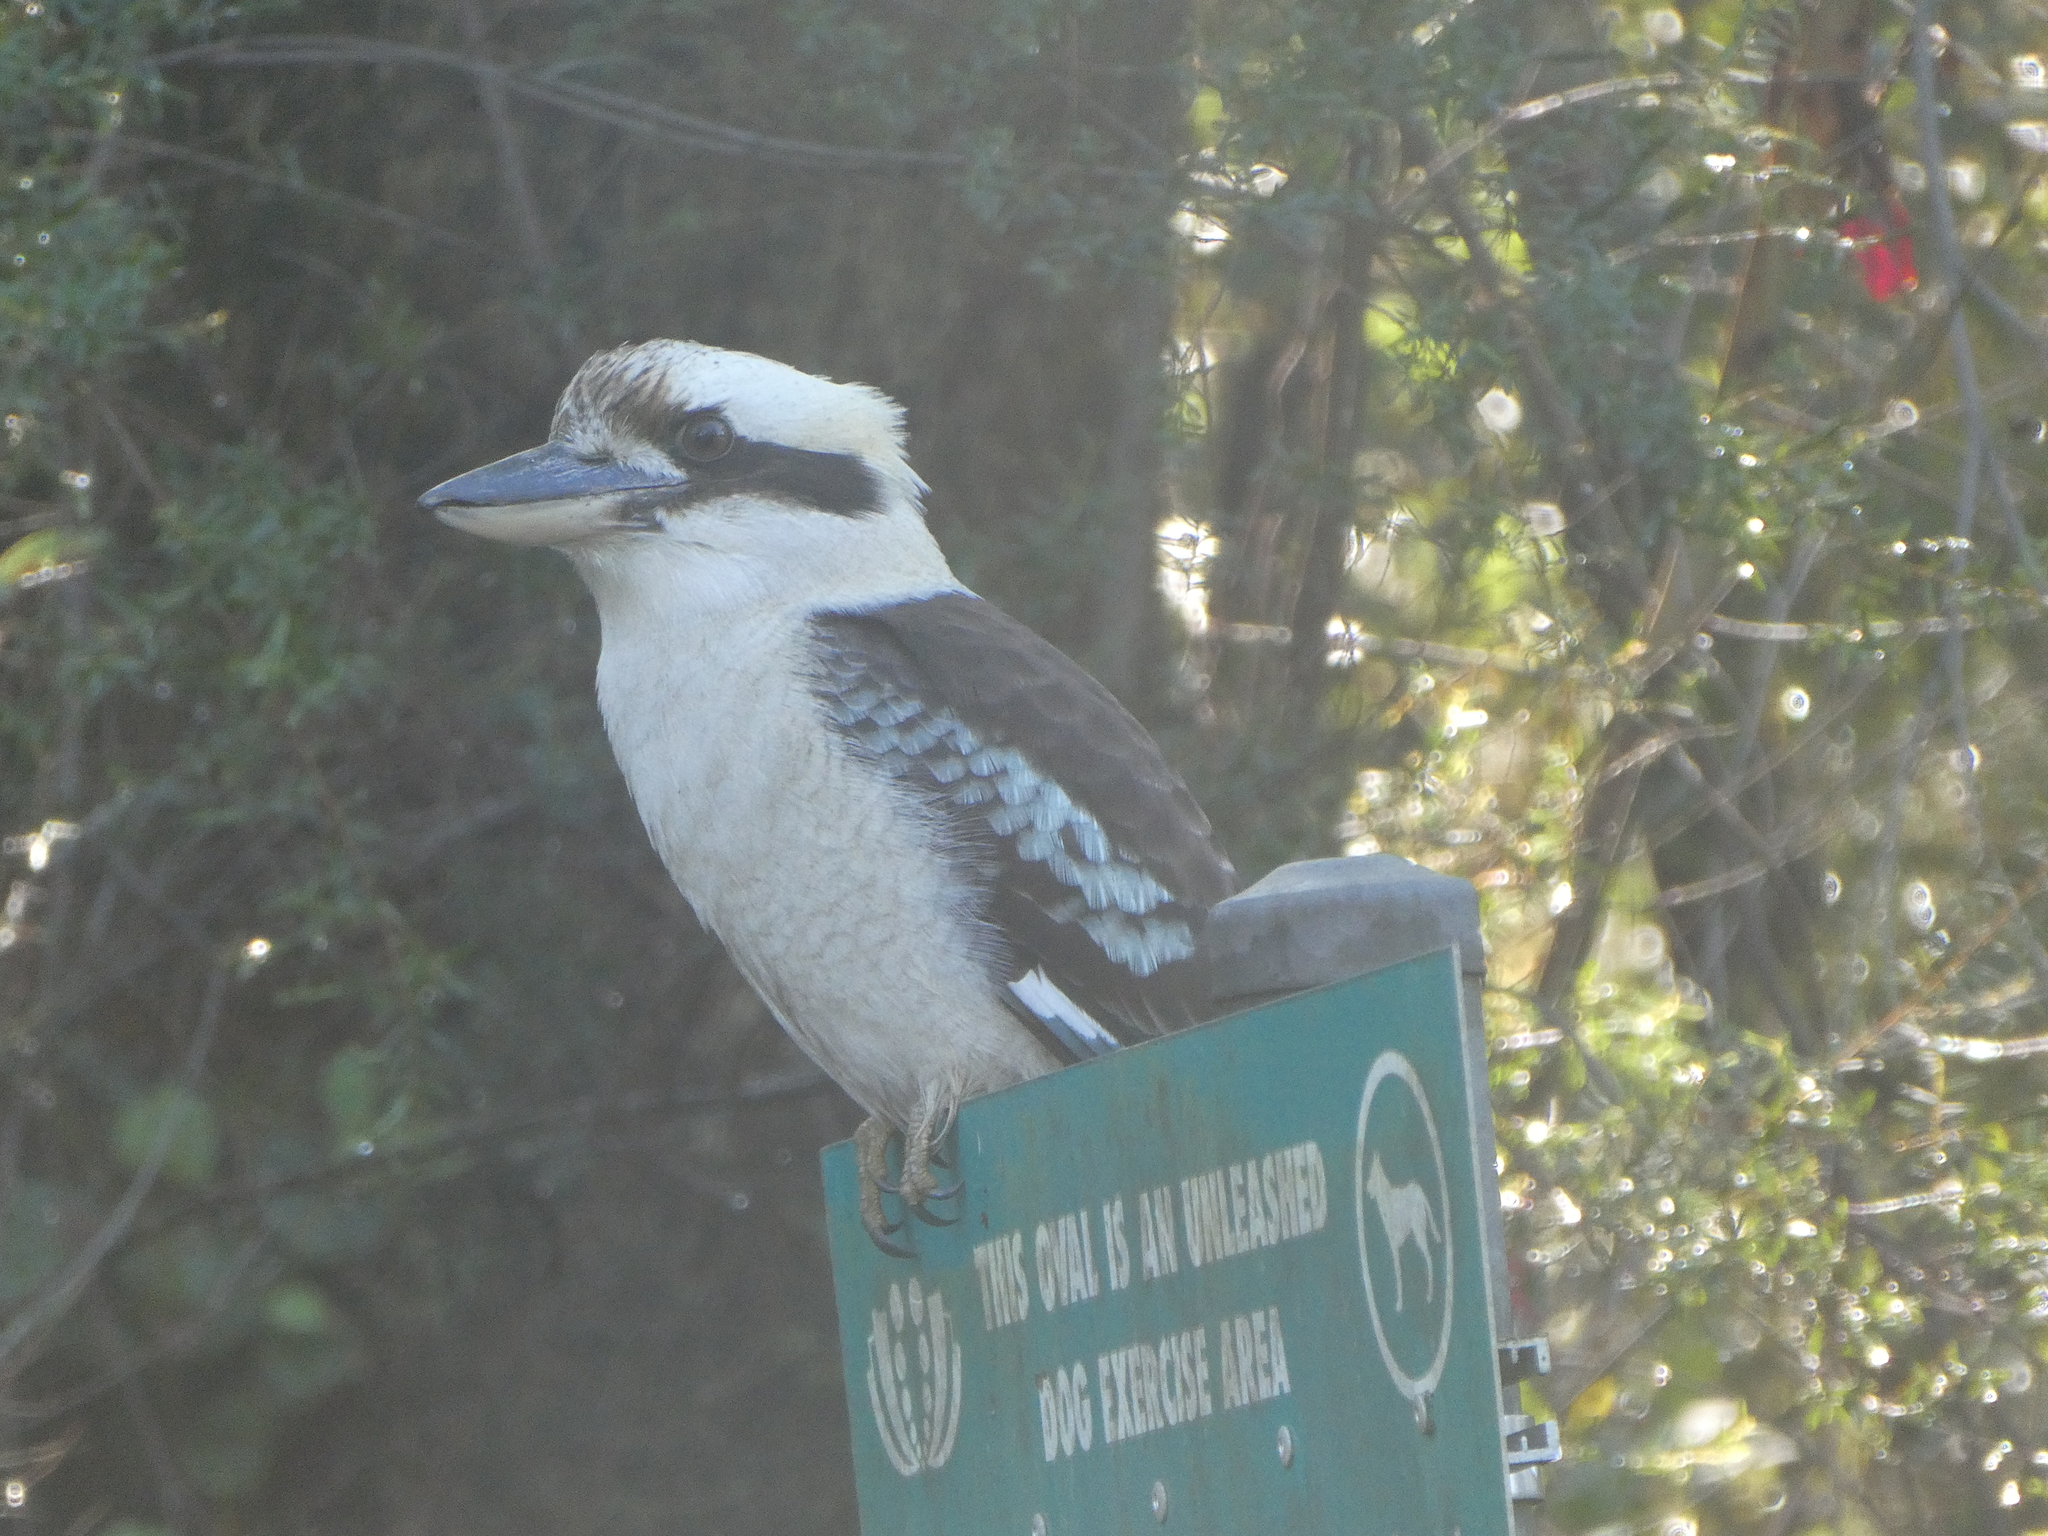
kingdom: Animalia
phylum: Chordata
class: Aves
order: Coraciiformes
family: Alcedinidae
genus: Dacelo
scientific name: Dacelo novaeguineae
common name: Laughing kookaburra
